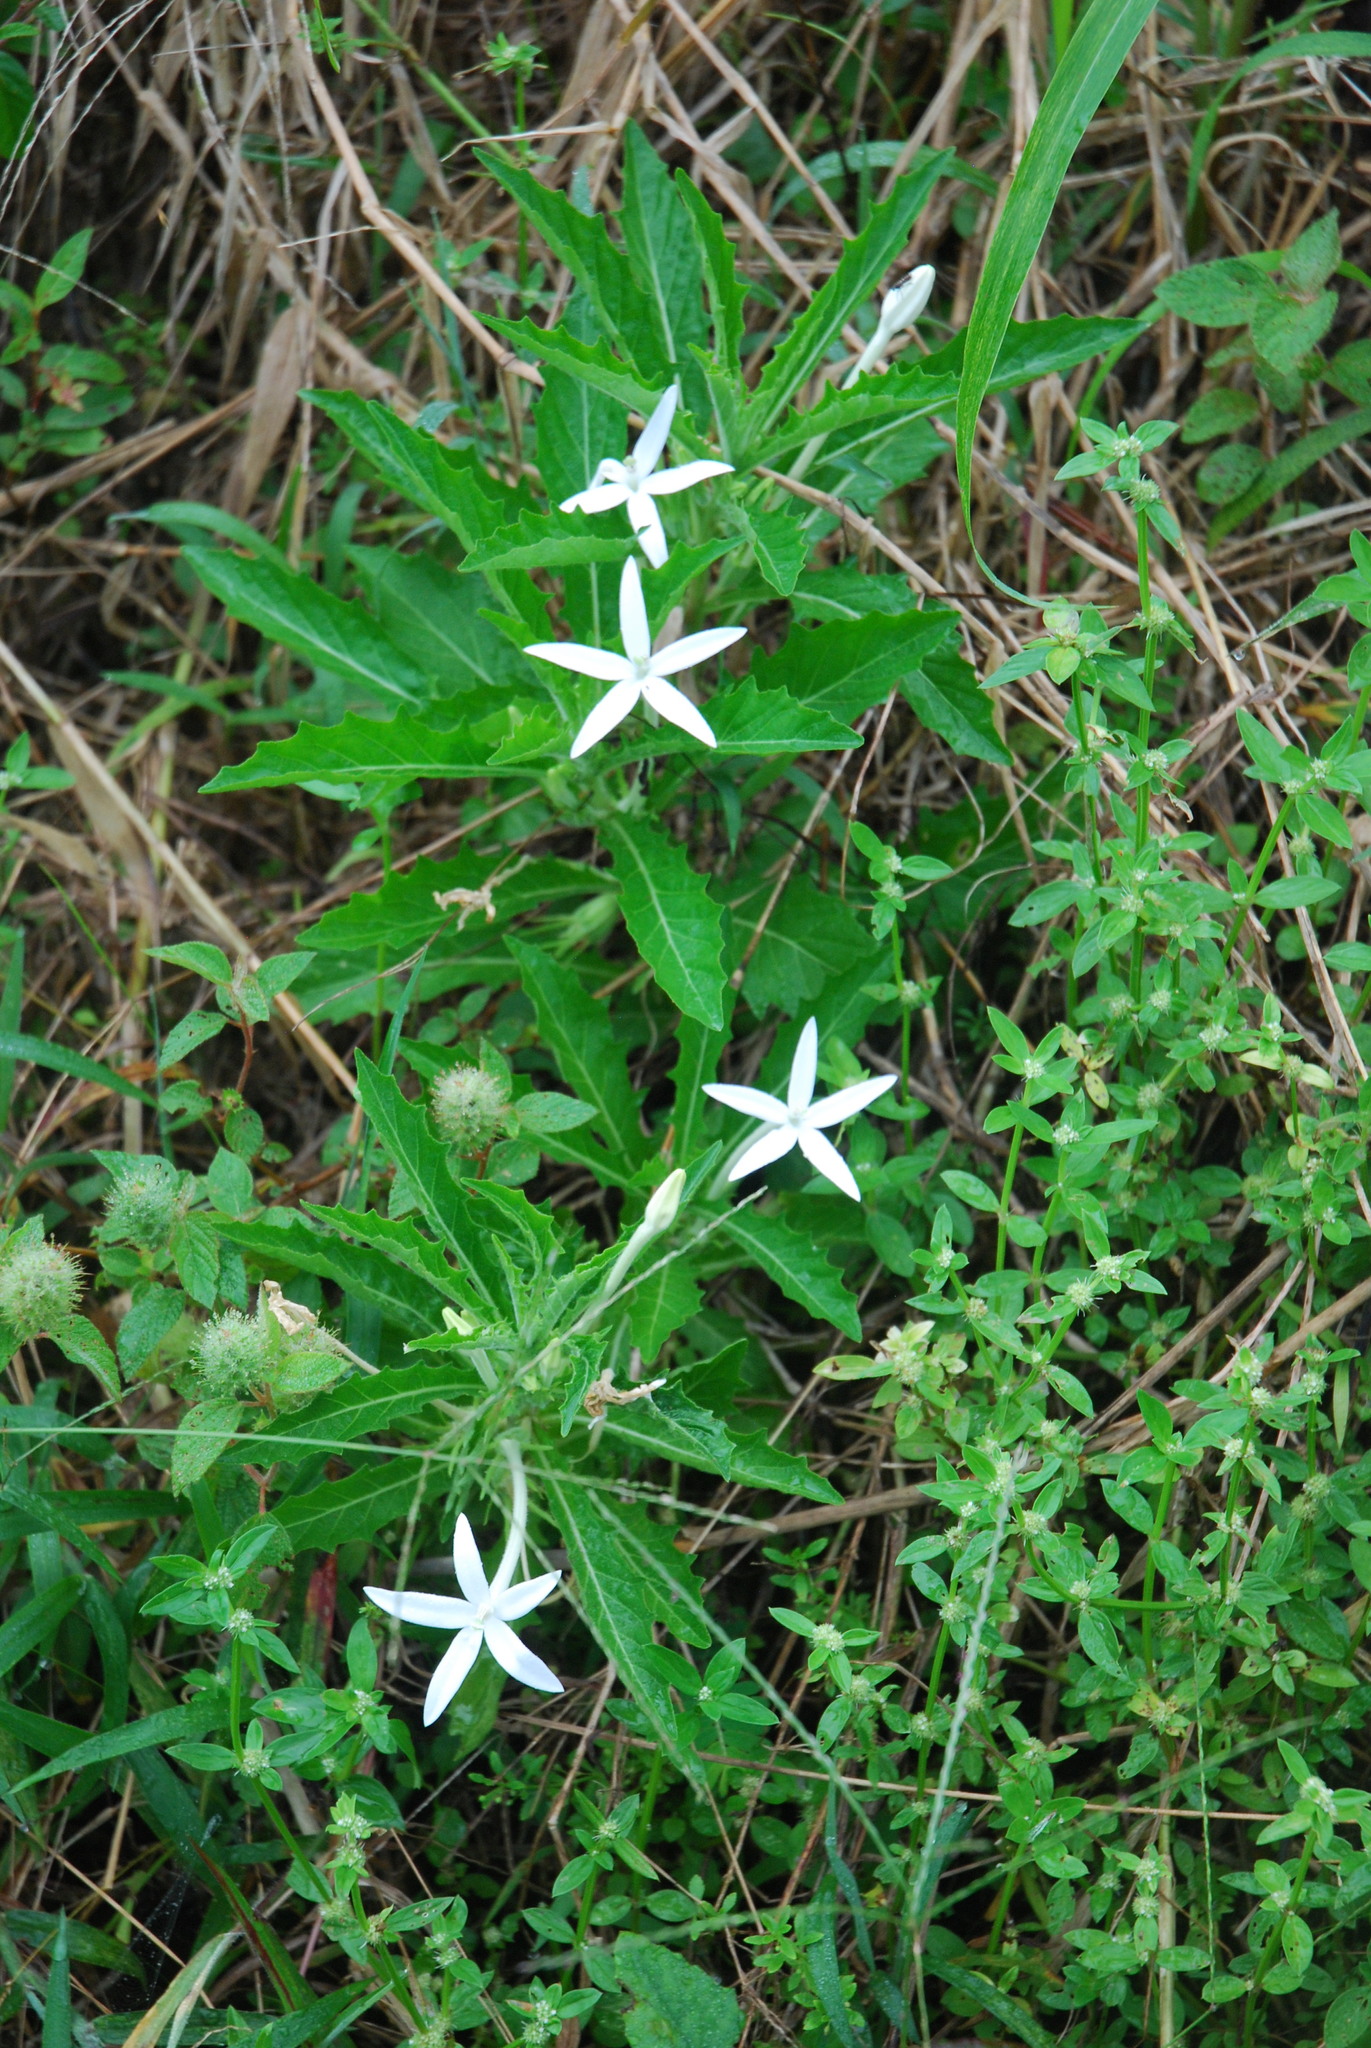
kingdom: Plantae
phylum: Tracheophyta
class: Magnoliopsida
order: Asterales
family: Campanulaceae
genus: Hippobroma
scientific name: Hippobroma longiflora
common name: Madamfate
